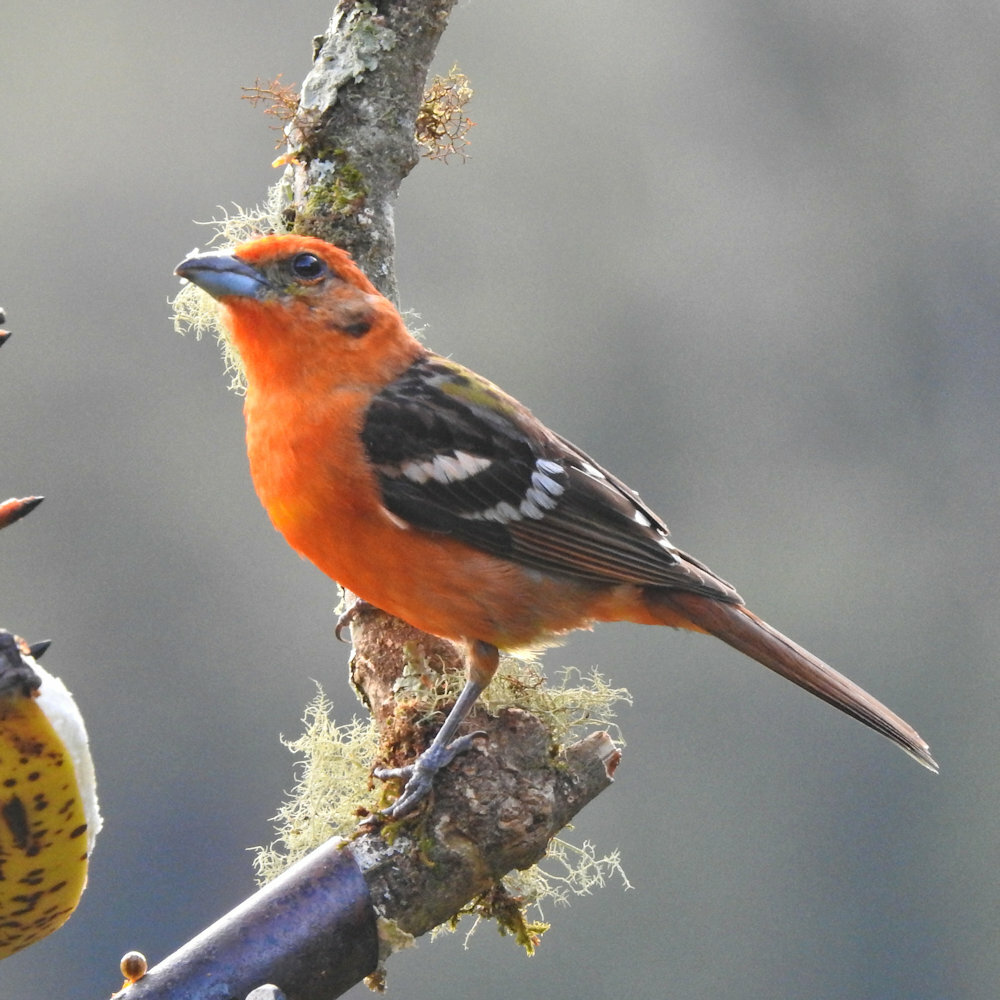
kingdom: Animalia
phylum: Chordata
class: Aves
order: Passeriformes
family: Cardinalidae
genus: Piranga
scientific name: Piranga bidentata
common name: Flame-colored tanager
